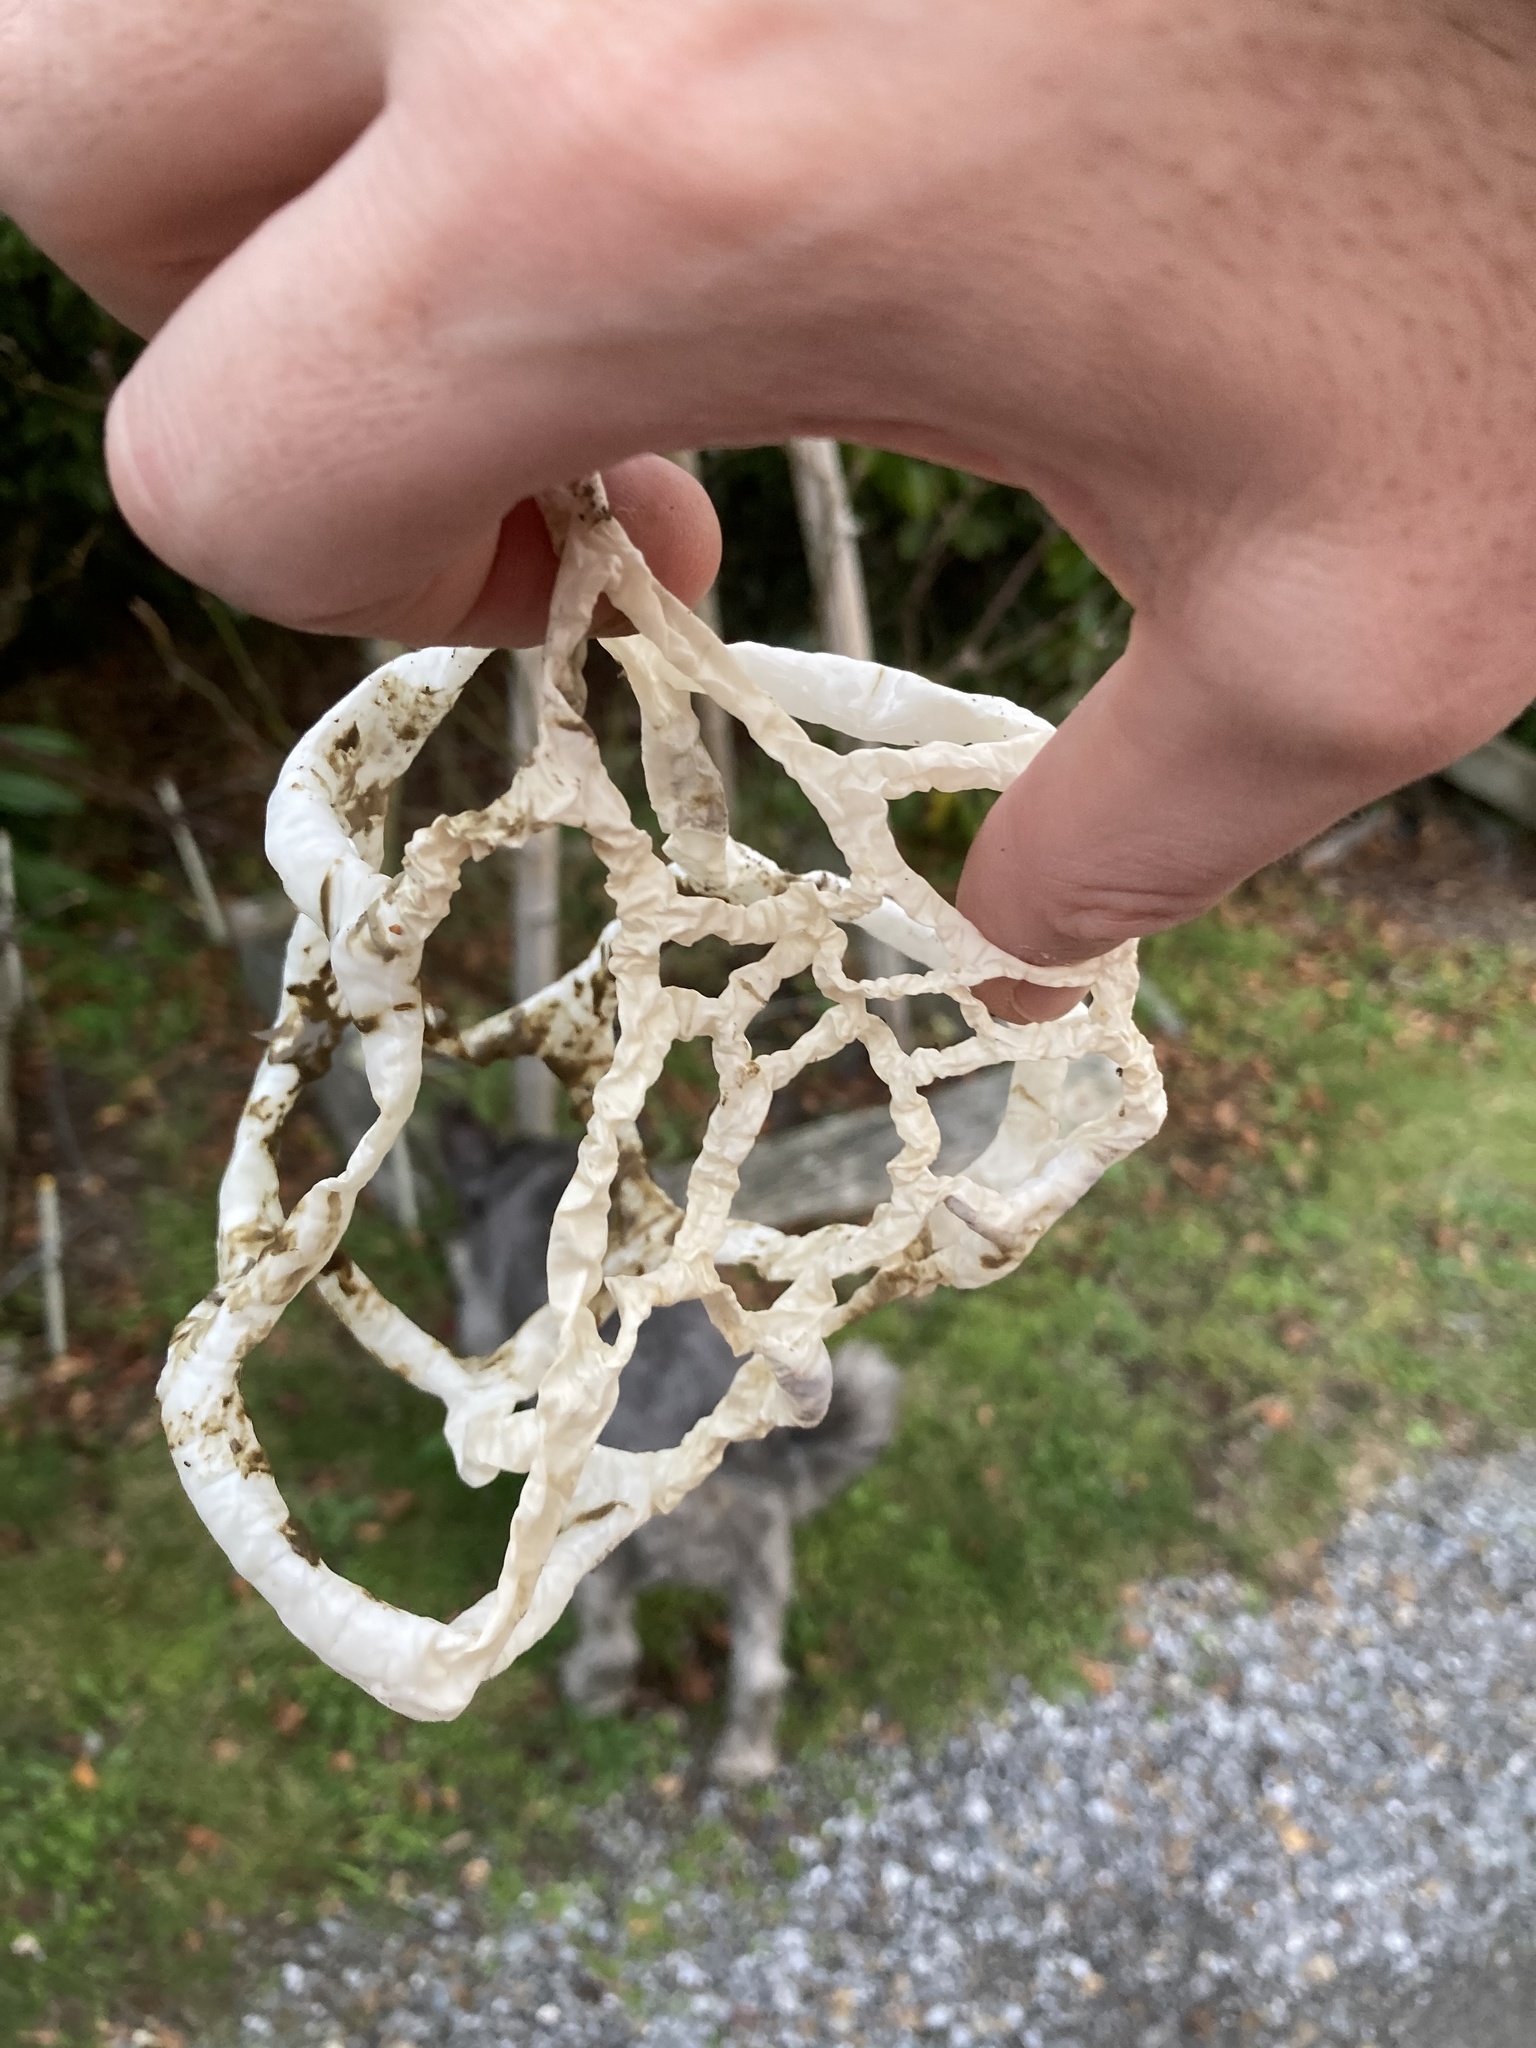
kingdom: Fungi
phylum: Basidiomycota
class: Agaricomycetes
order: Phallales
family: Phallaceae
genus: Ileodictyon
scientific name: Ileodictyon cibarium
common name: Basket fungus
